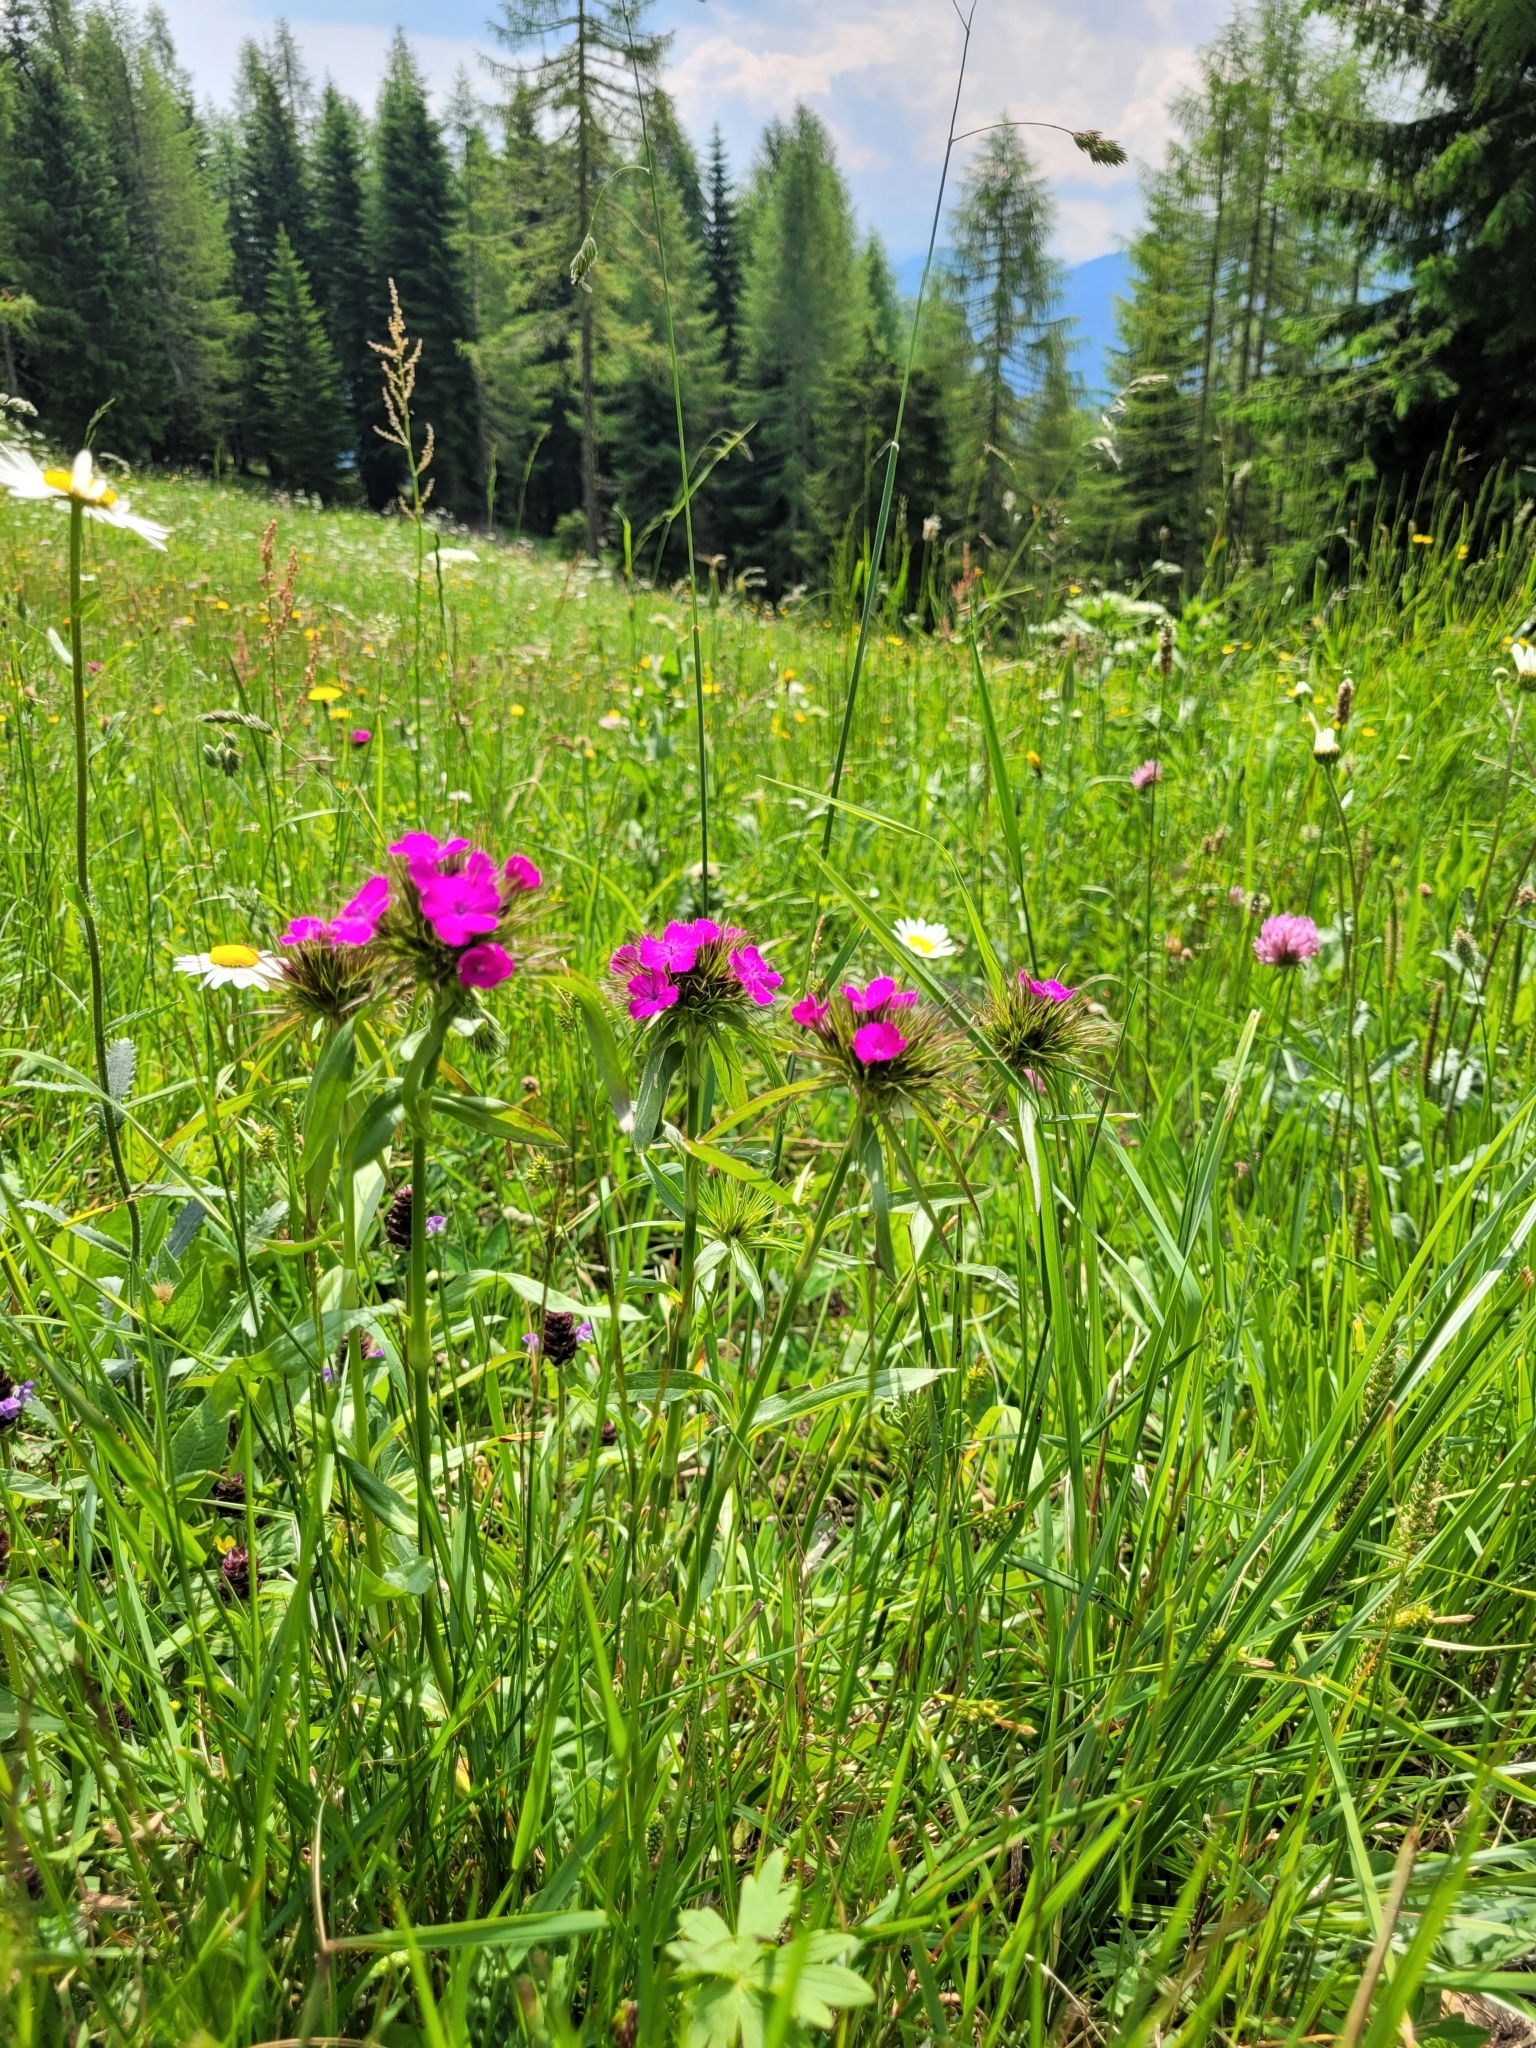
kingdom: Plantae
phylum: Tracheophyta
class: Magnoliopsida
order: Caryophyllales
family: Caryophyllaceae
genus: Dianthus
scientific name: Dianthus barbatus
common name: Sweet-william
